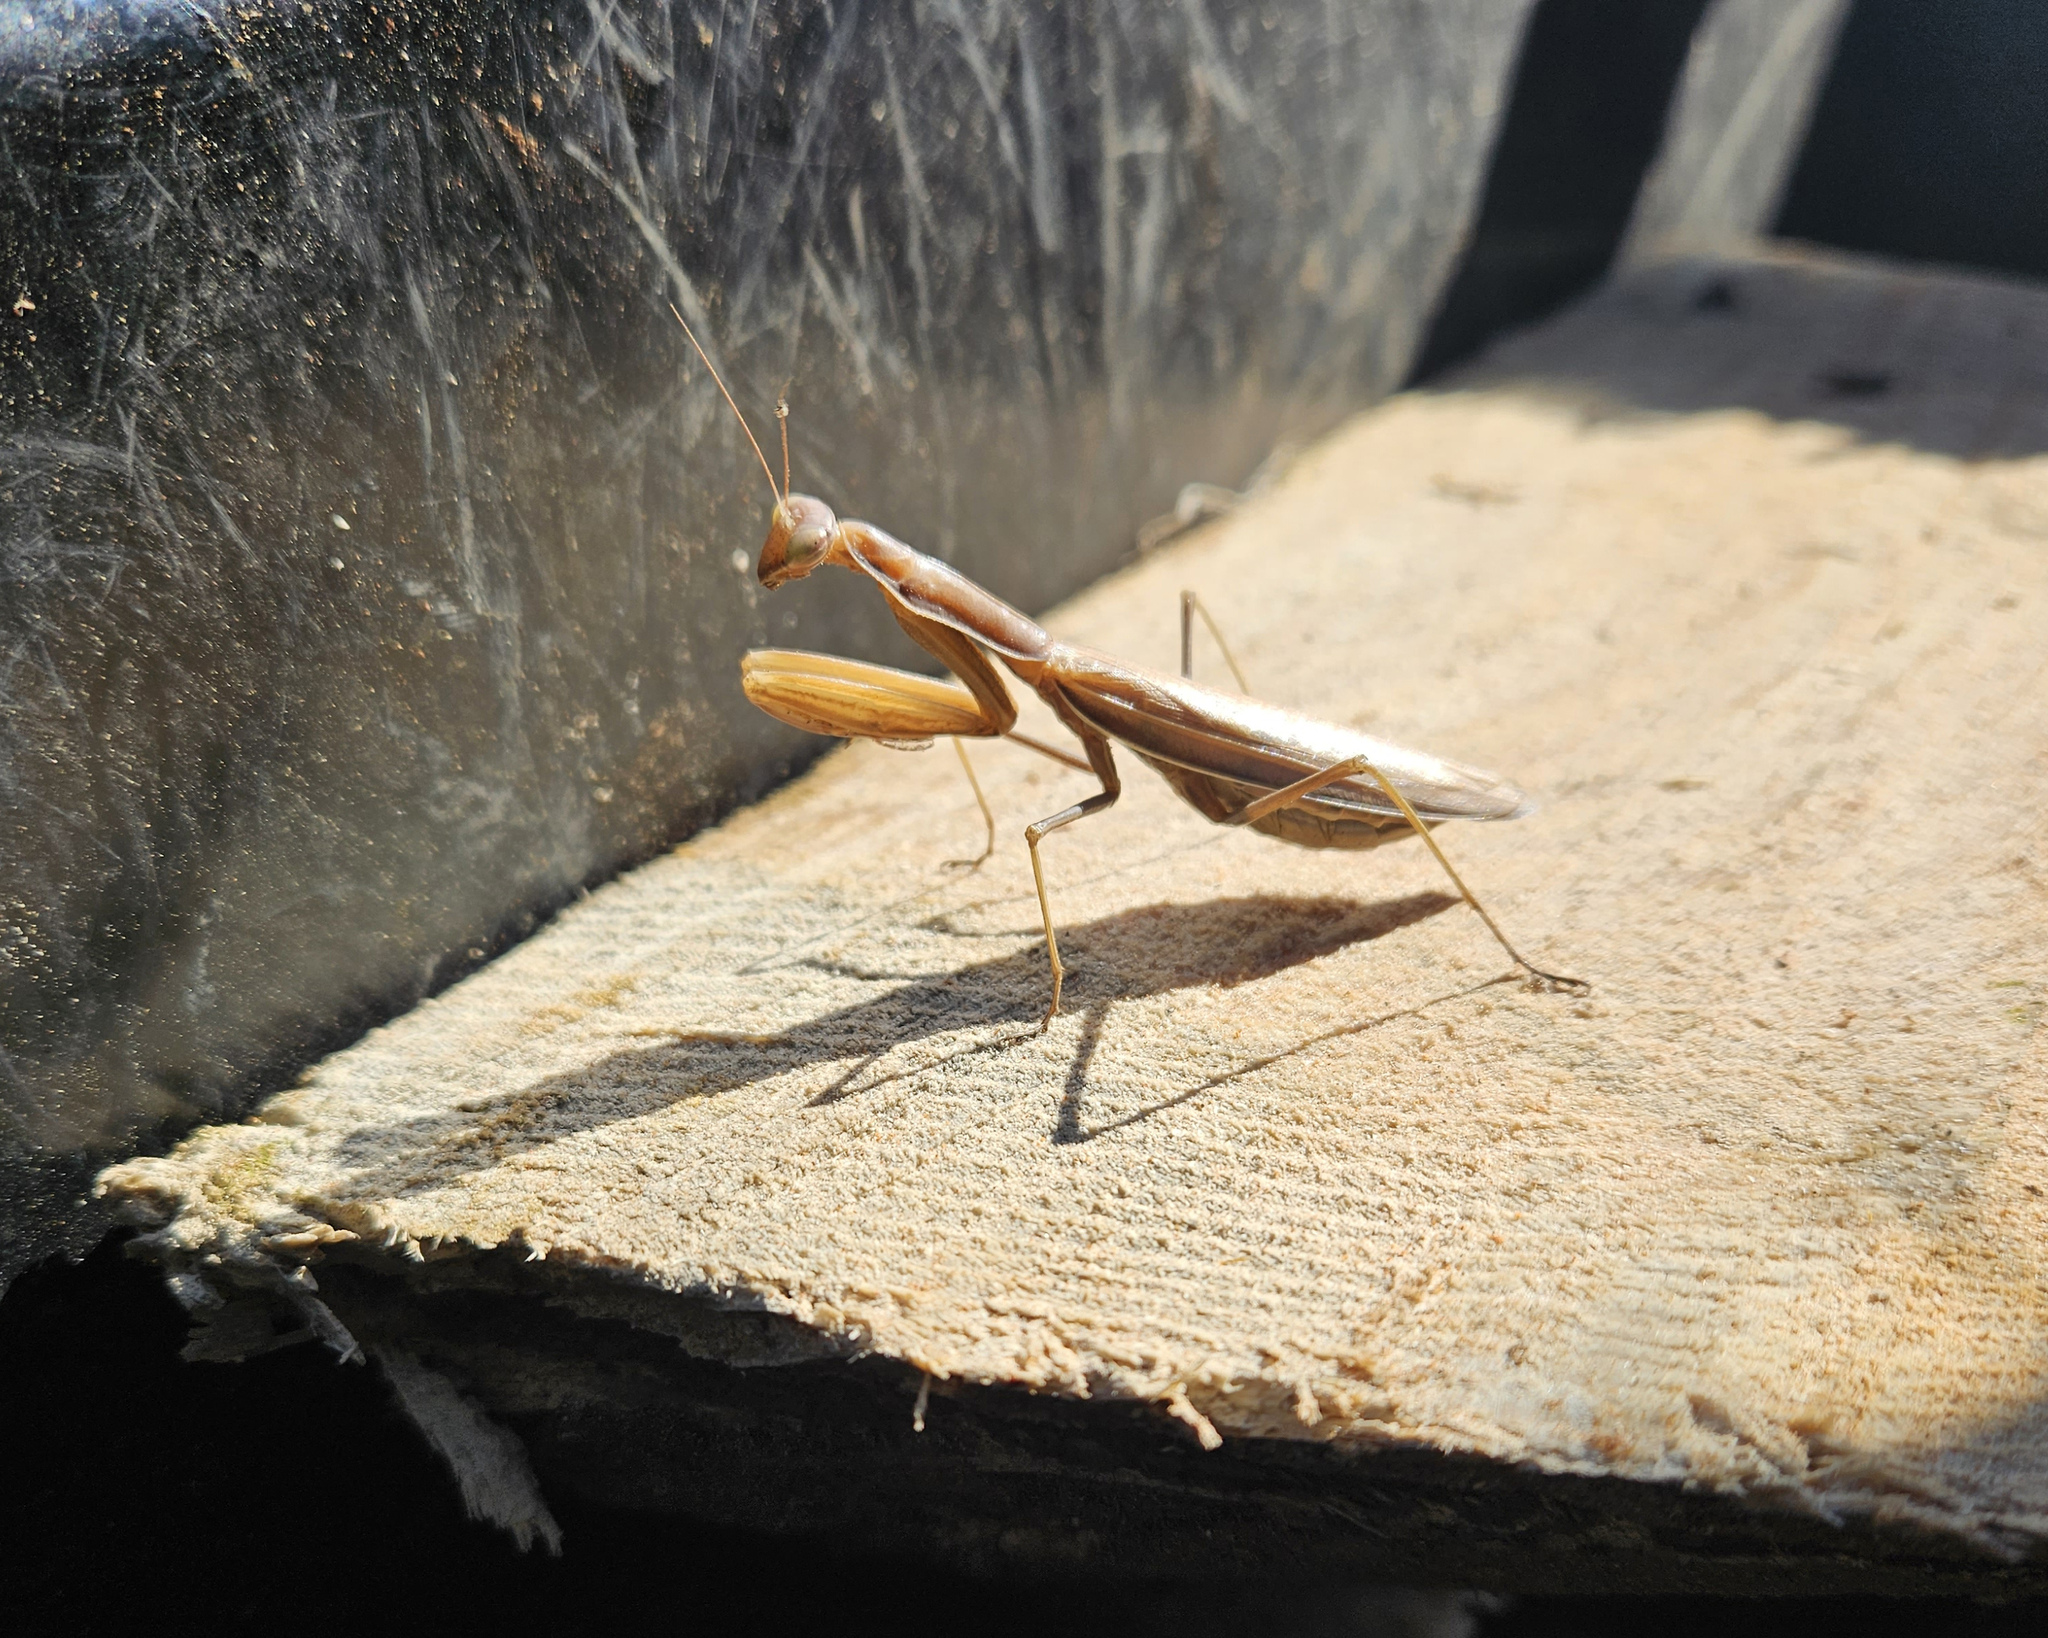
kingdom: Animalia
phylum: Arthropoda
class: Insecta
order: Mantodea
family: Mantidae
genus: Mantis
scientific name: Mantis religiosa
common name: Praying mantis
